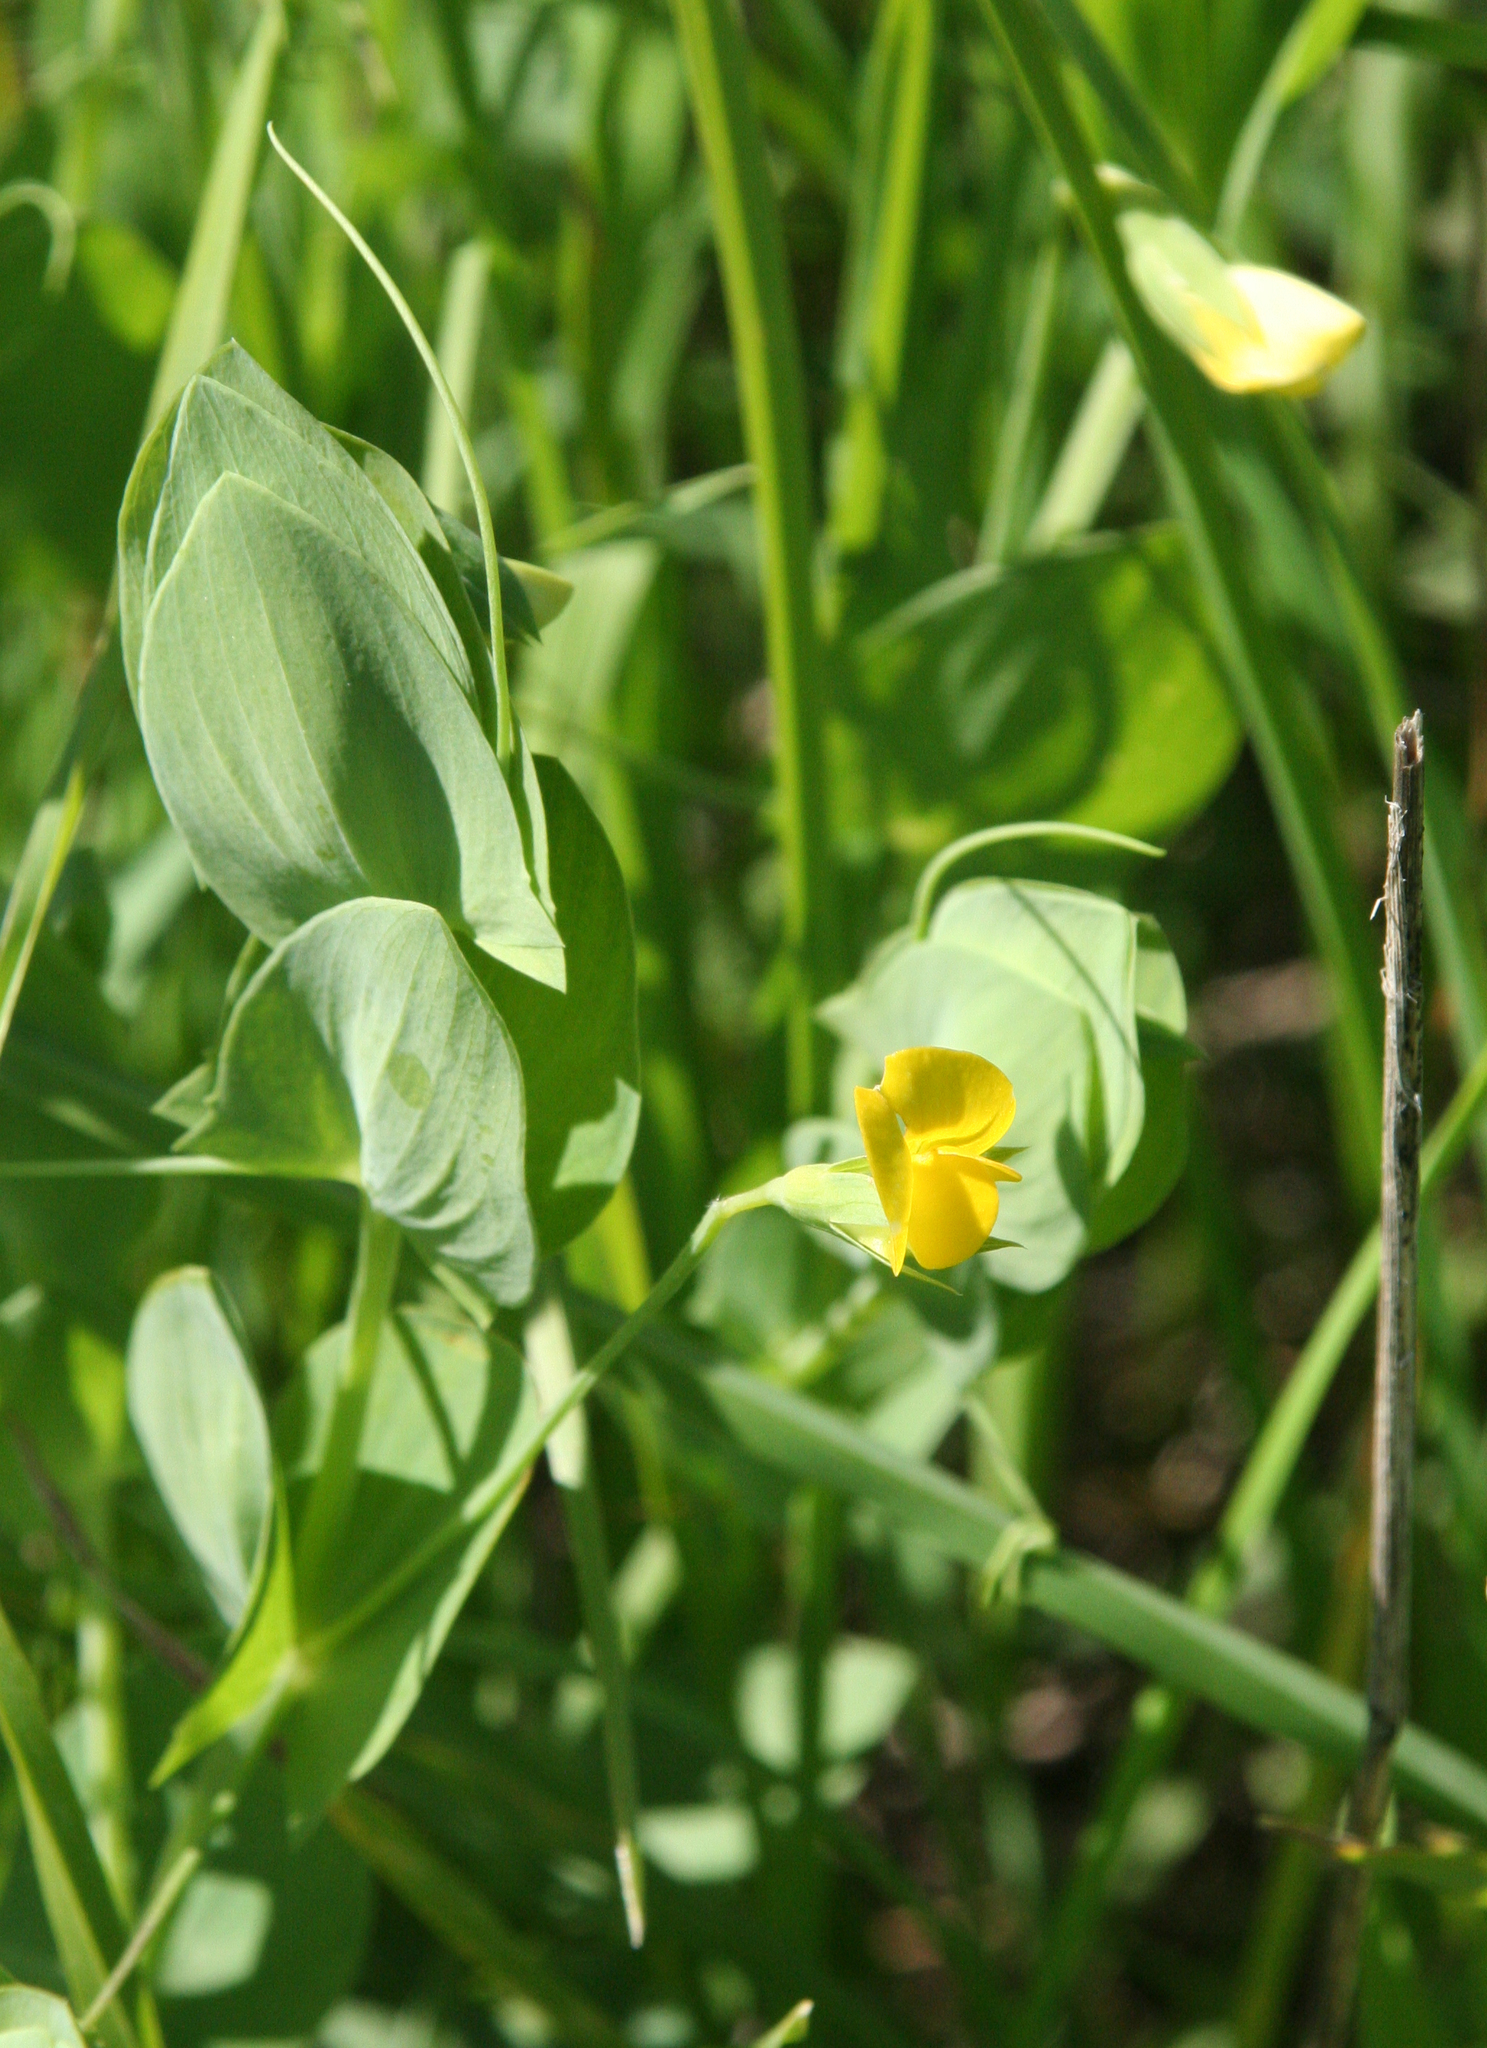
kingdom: Plantae
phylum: Tracheophyta
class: Magnoliopsida
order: Fabales
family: Fabaceae
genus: Lathyrus
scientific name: Lathyrus aphaca
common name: Yellow vetchling
